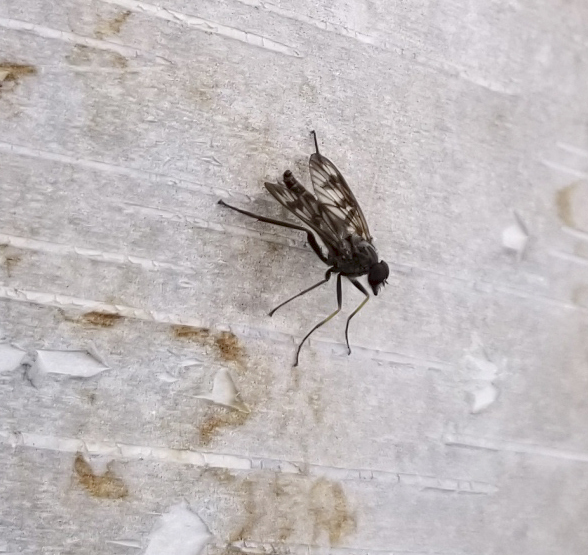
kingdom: Animalia
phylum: Arthropoda
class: Insecta
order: Diptera
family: Rhagionidae
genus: Rhagio
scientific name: Rhagio mystaceus
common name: Common snipe fly
